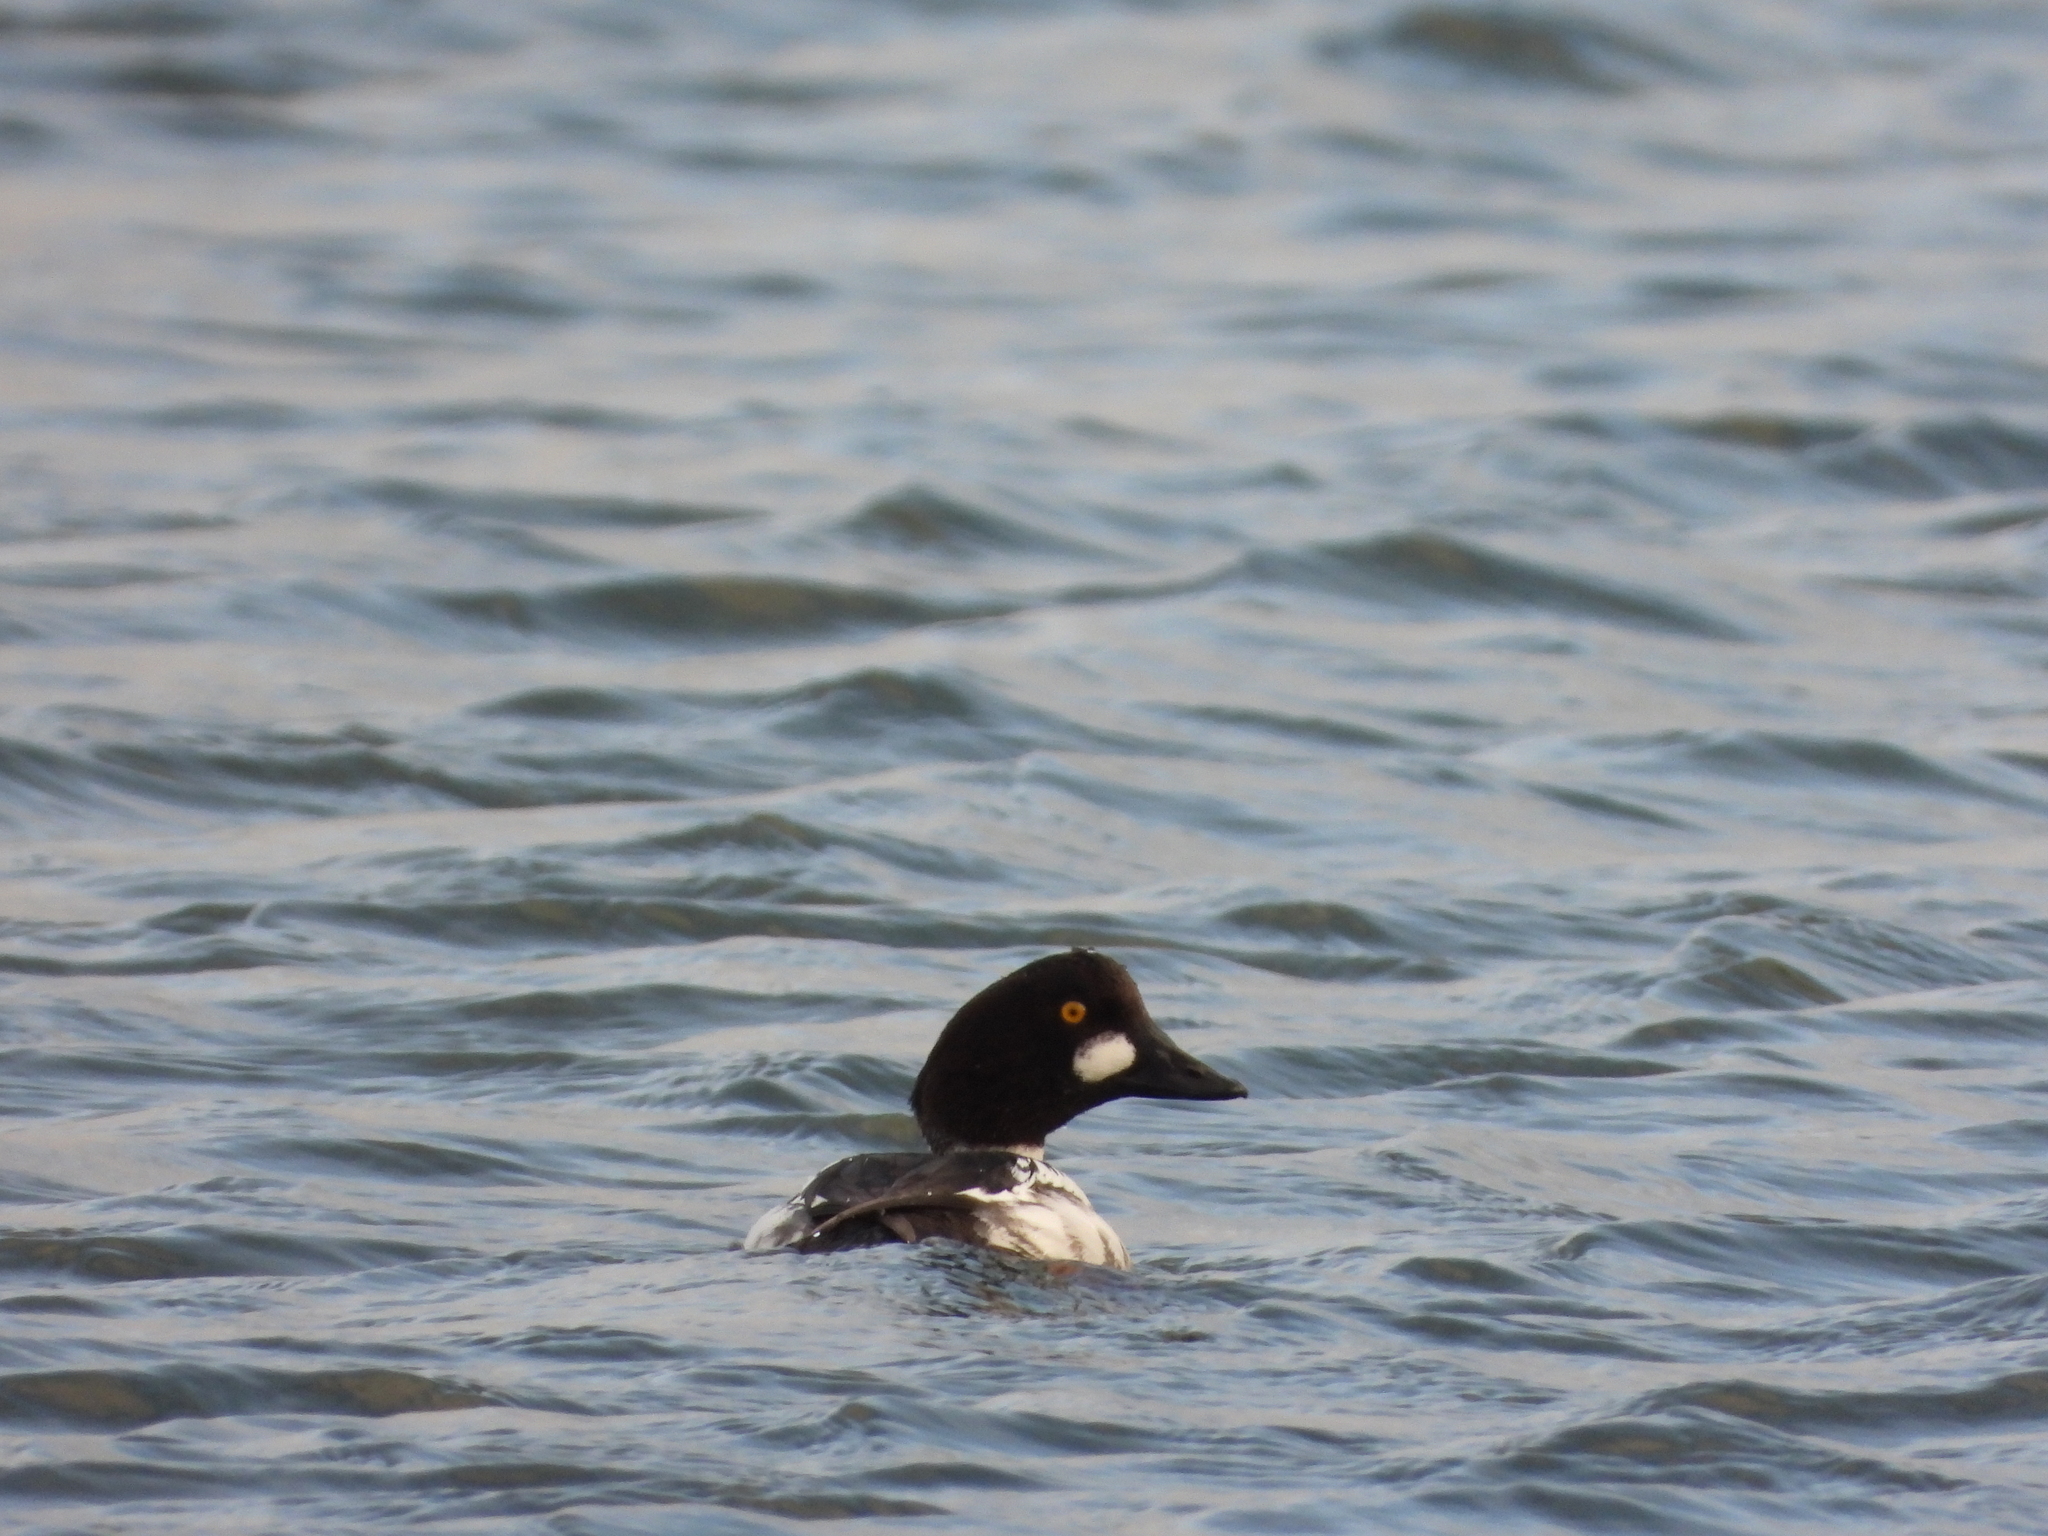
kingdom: Animalia
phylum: Chordata
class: Aves
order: Anseriformes
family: Anatidae
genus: Bucephala
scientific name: Bucephala clangula
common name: Common goldeneye
